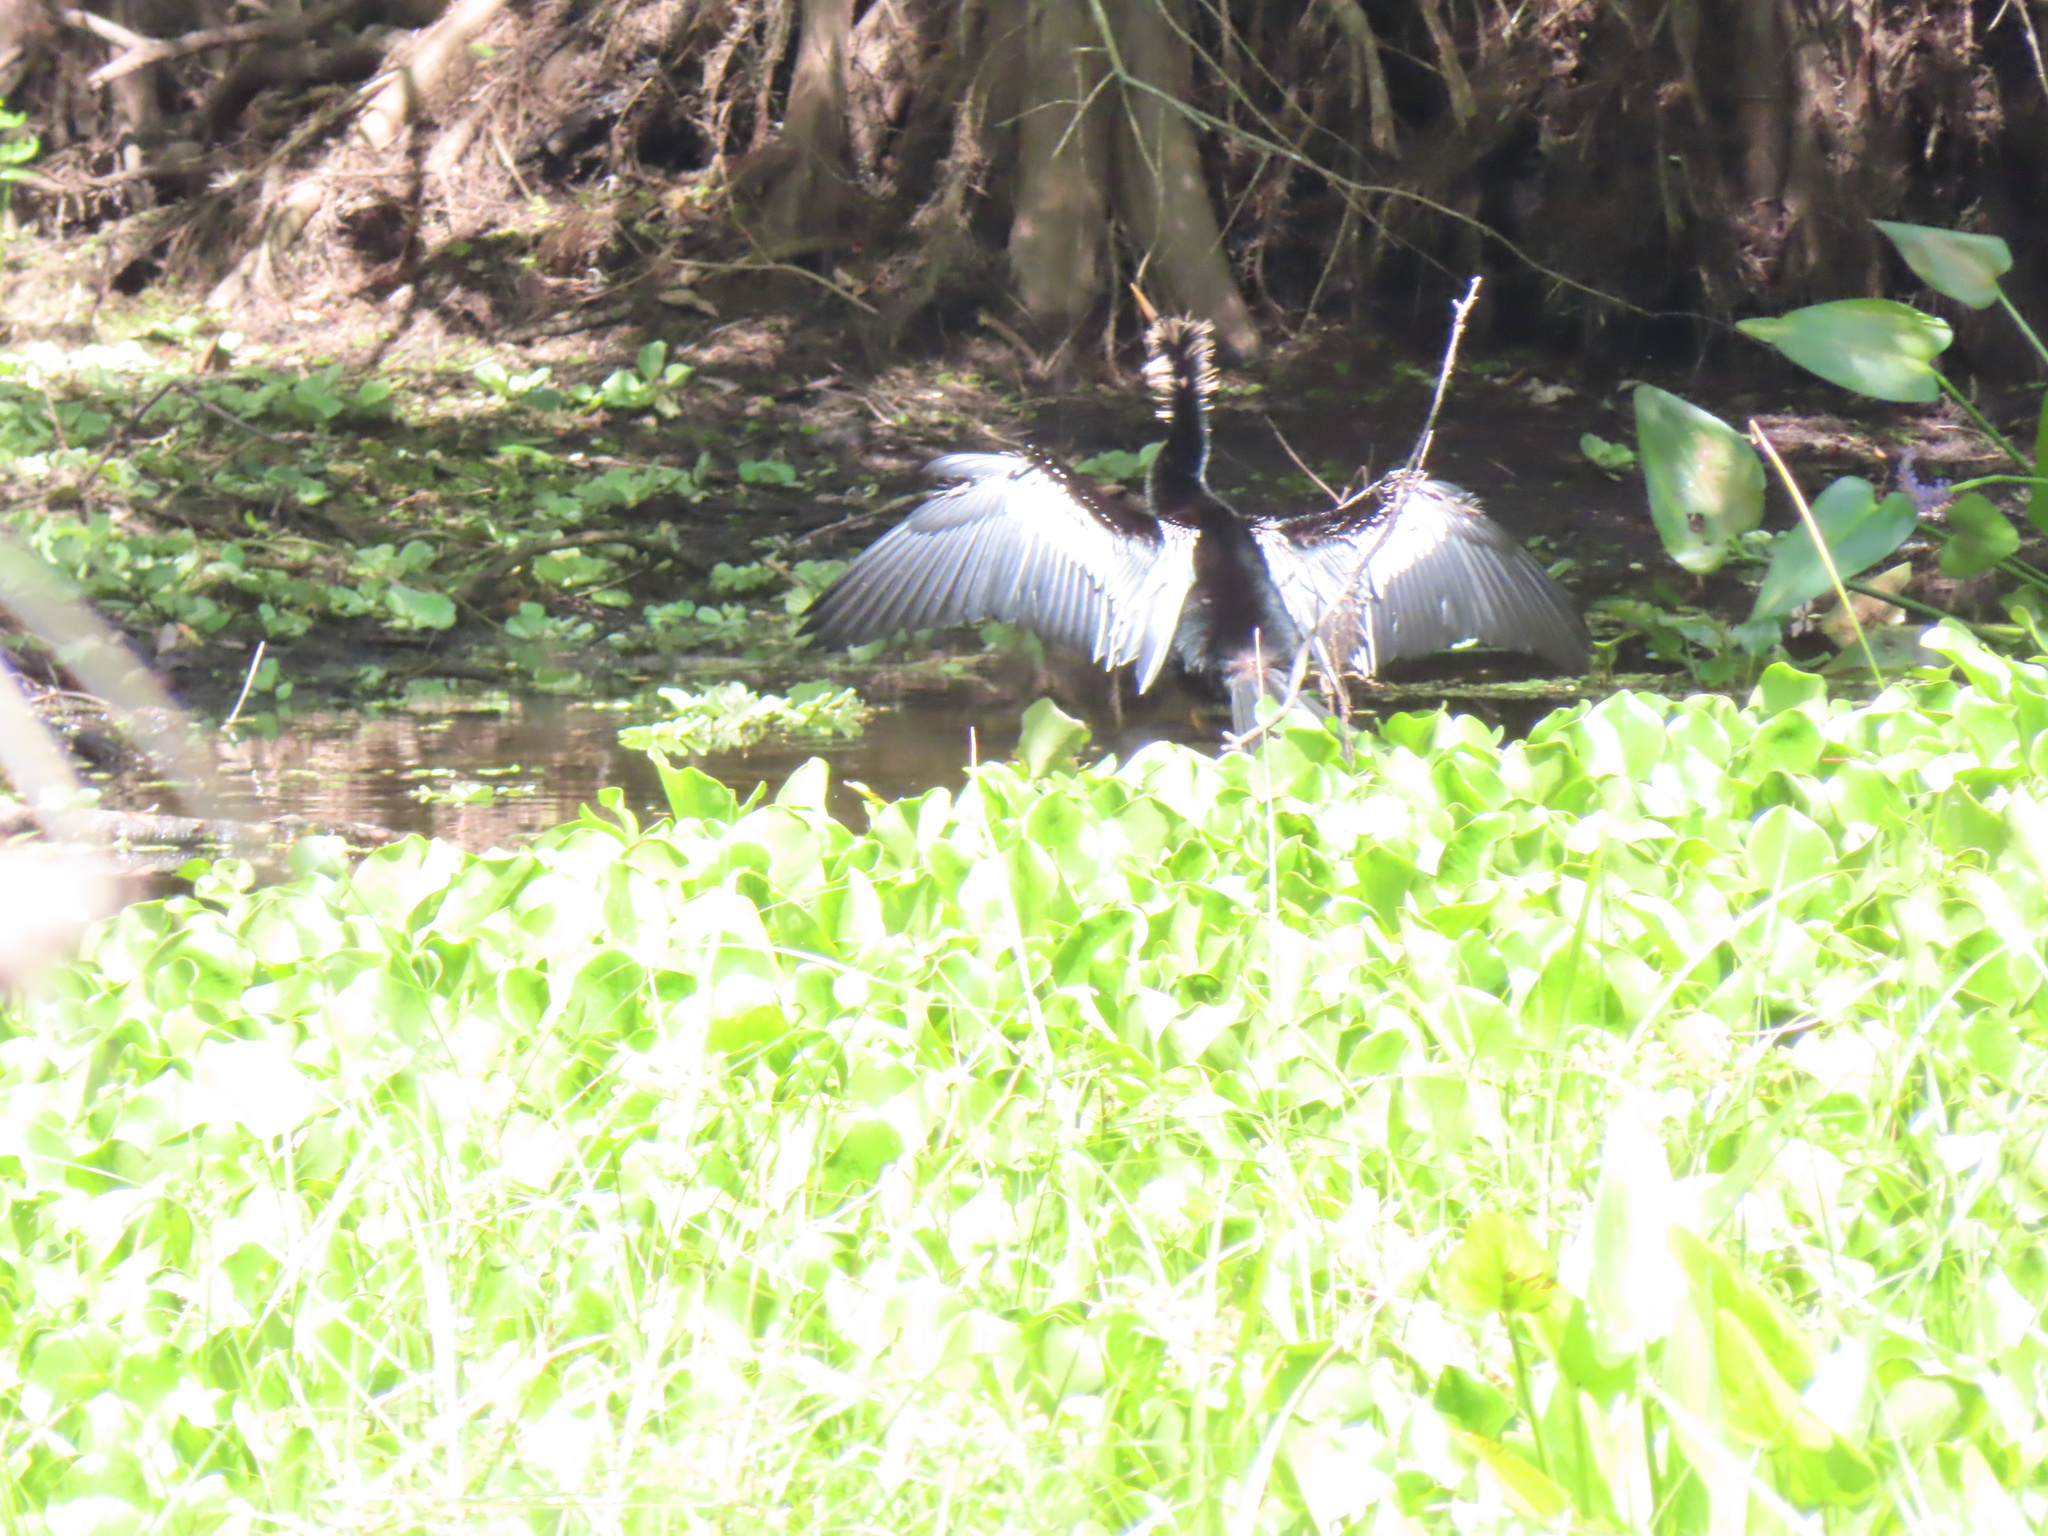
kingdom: Animalia
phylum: Chordata
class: Aves
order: Suliformes
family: Anhingidae
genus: Anhinga
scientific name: Anhinga anhinga
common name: Anhinga
